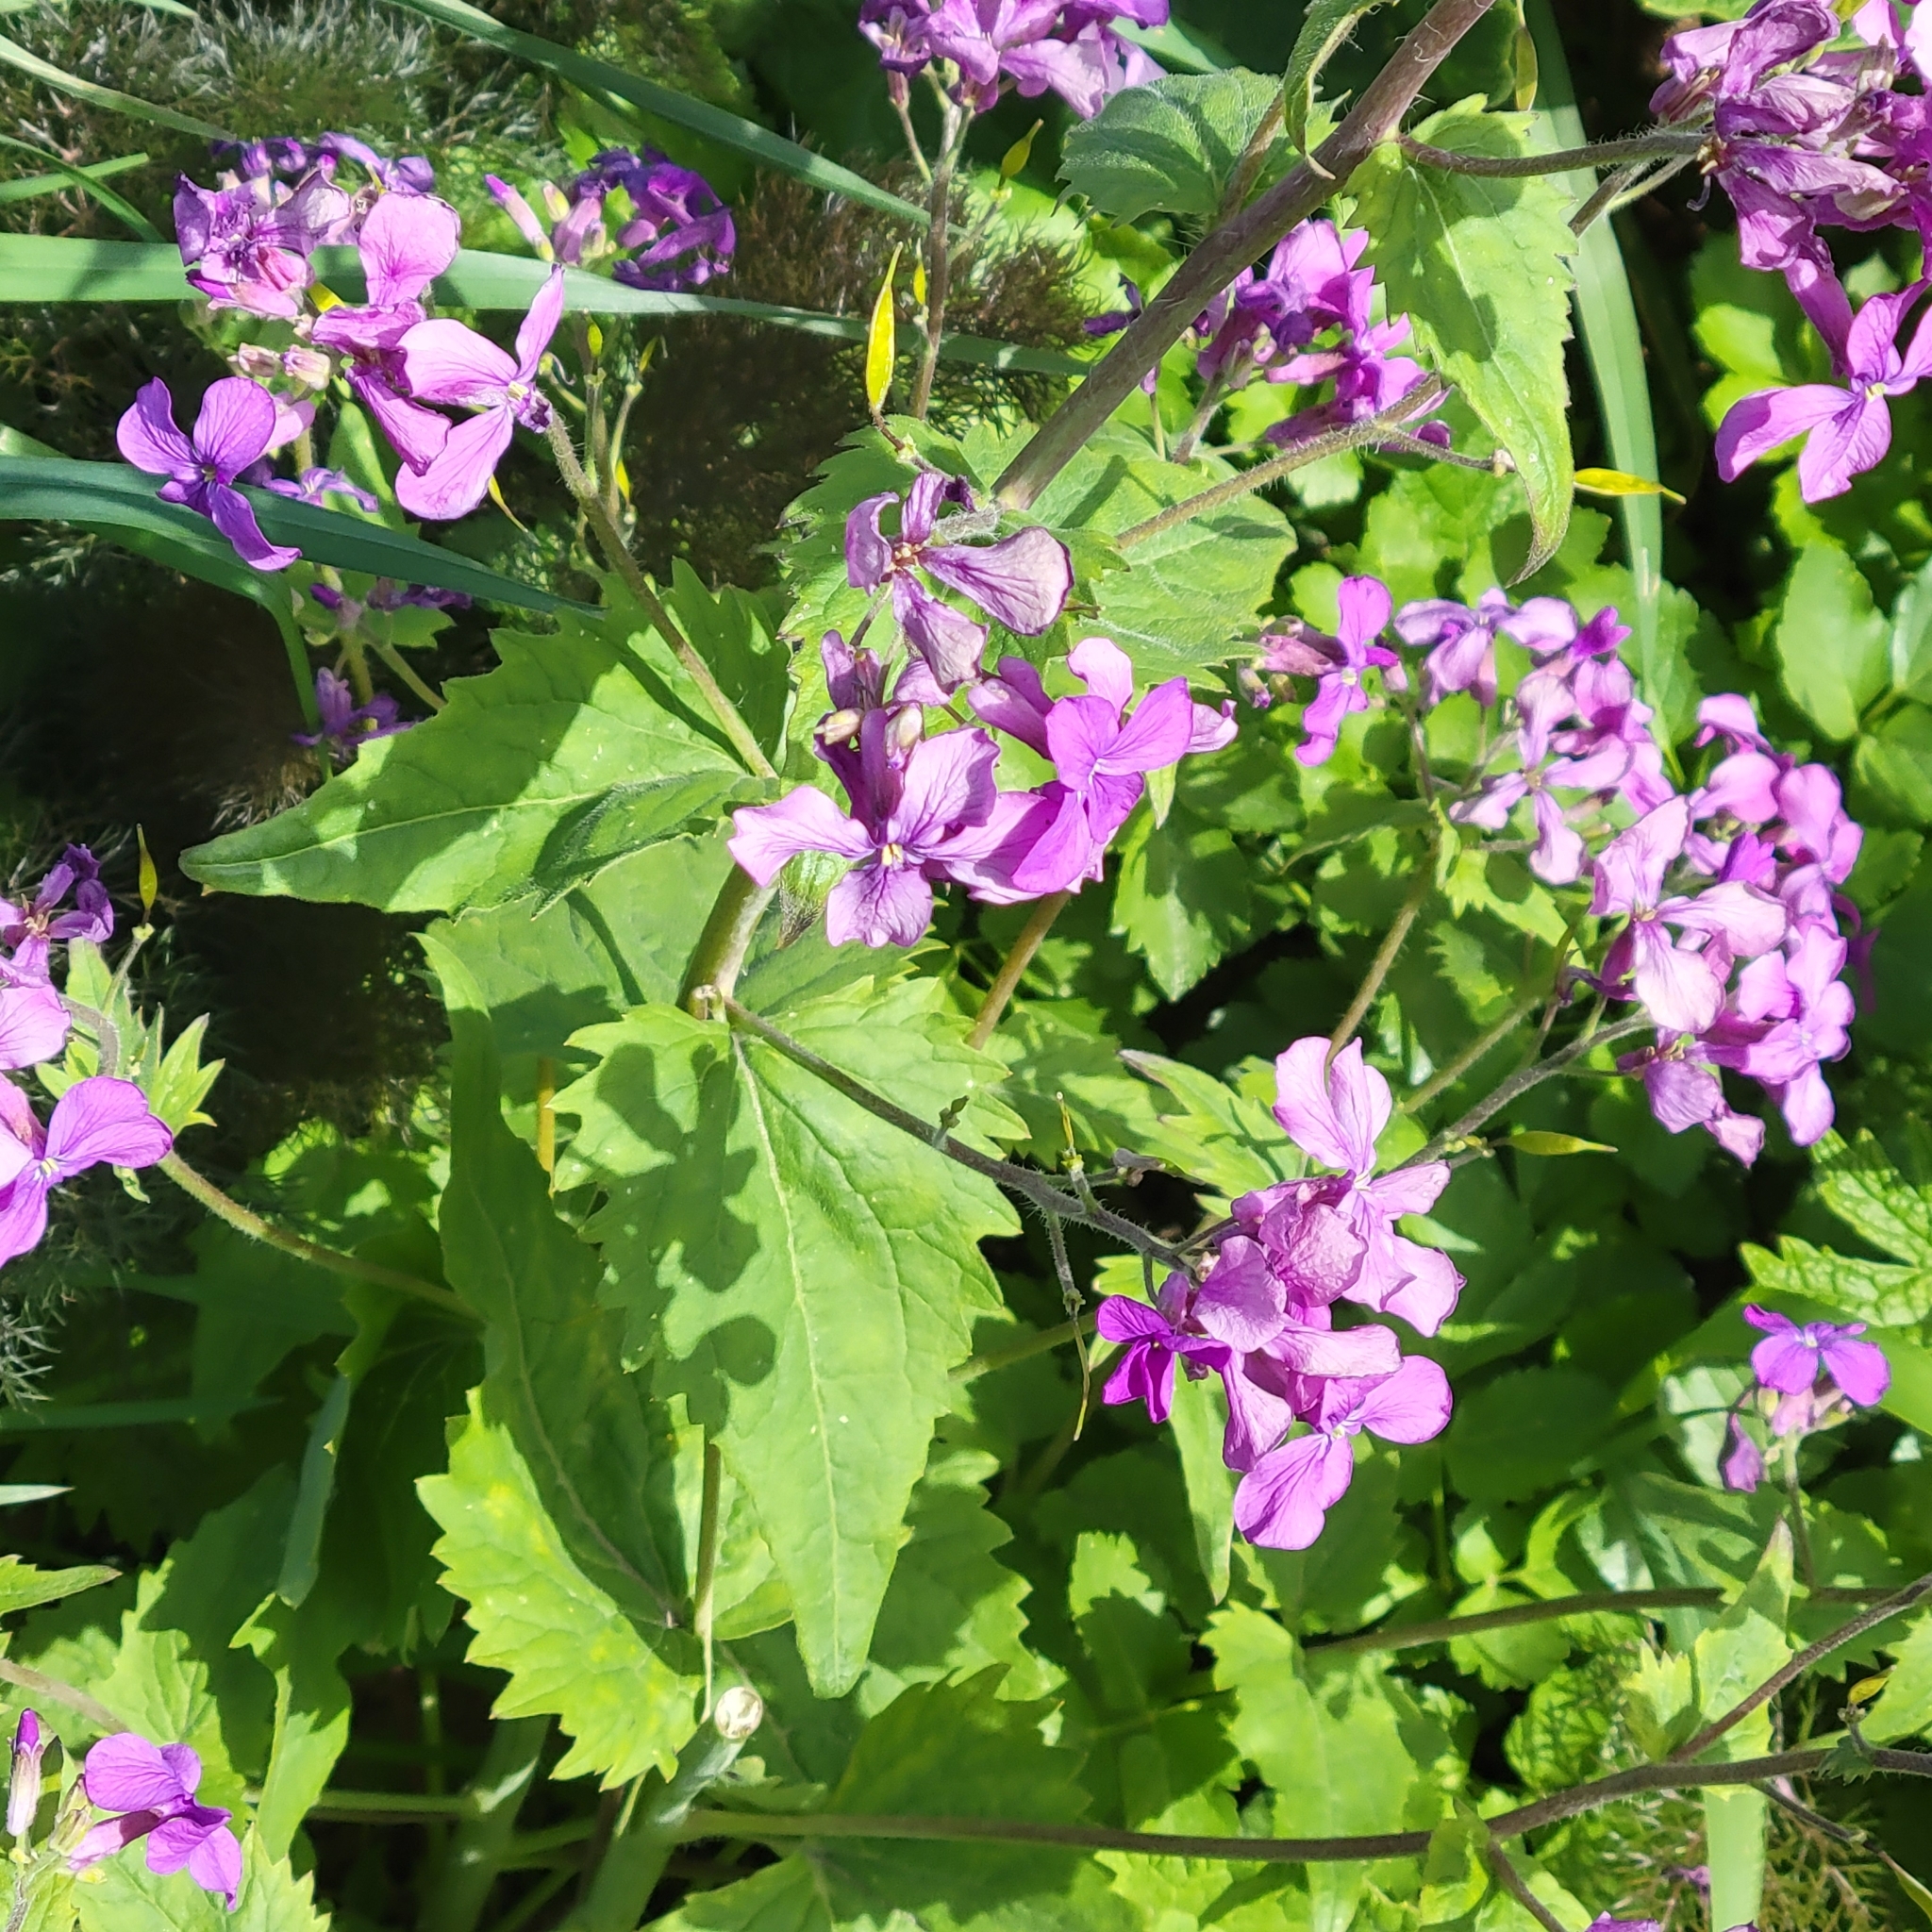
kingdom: Plantae
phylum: Tracheophyta
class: Magnoliopsida
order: Brassicales
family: Brassicaceae
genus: Lunaria
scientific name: Lunaria annua
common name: Honesty
